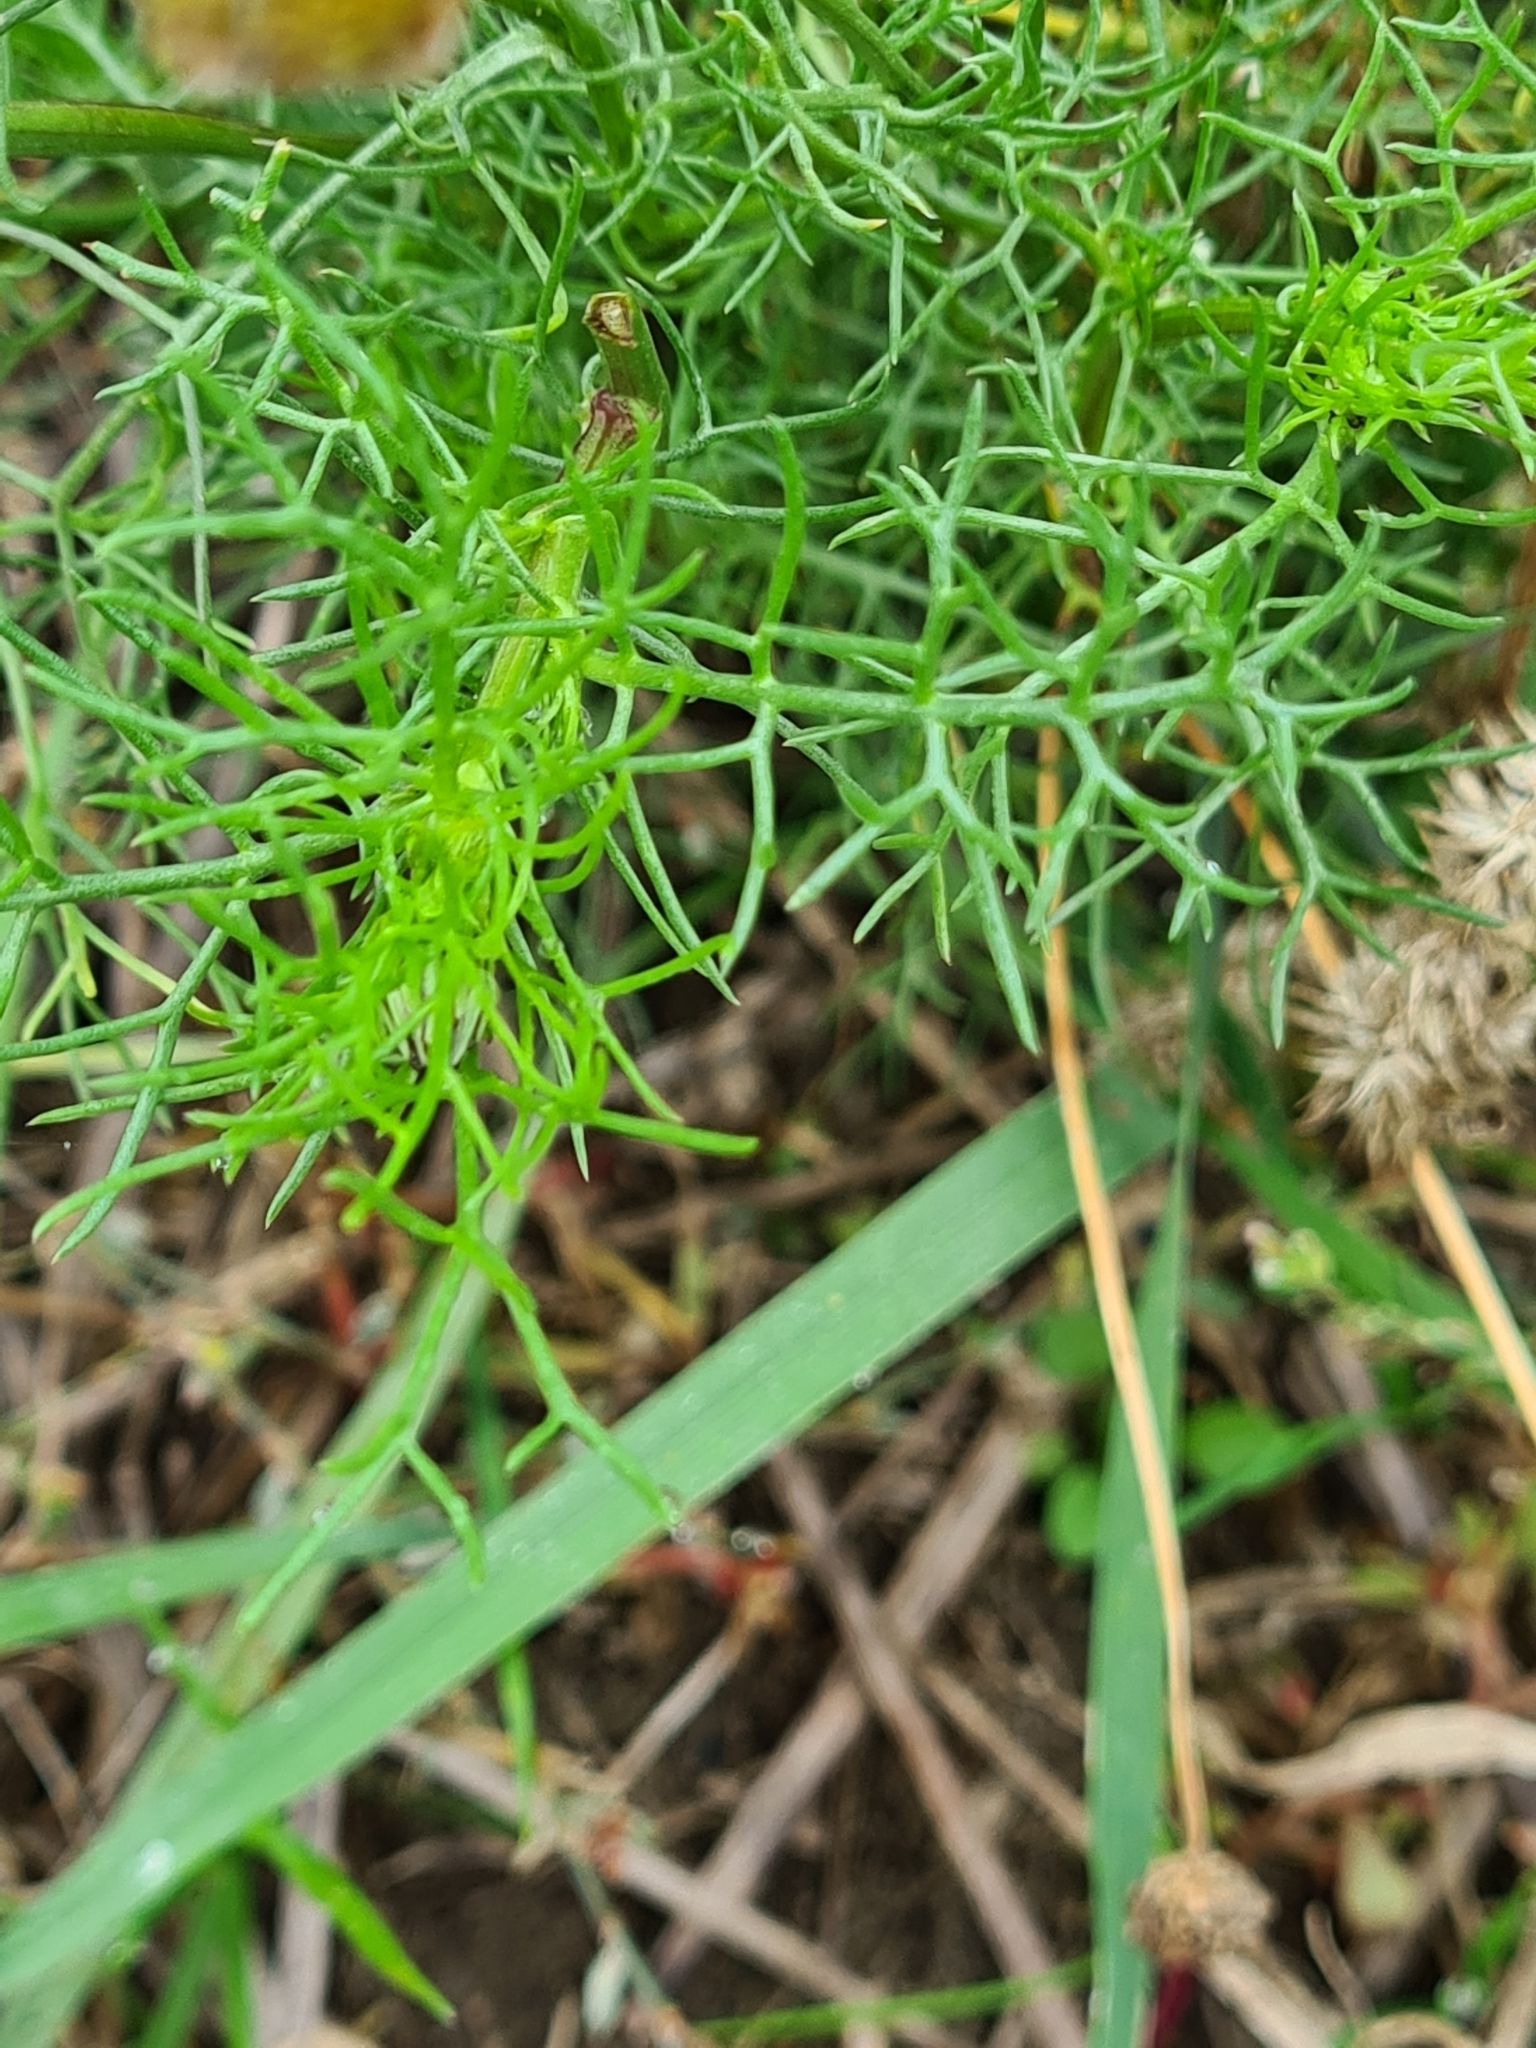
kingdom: Plantae
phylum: Tracheophyta
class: Magnoliopsida
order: Asterales
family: Asteraceae
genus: Tripleurospermum
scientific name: Tripleurospermum inodorum
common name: Scentless mayweed
